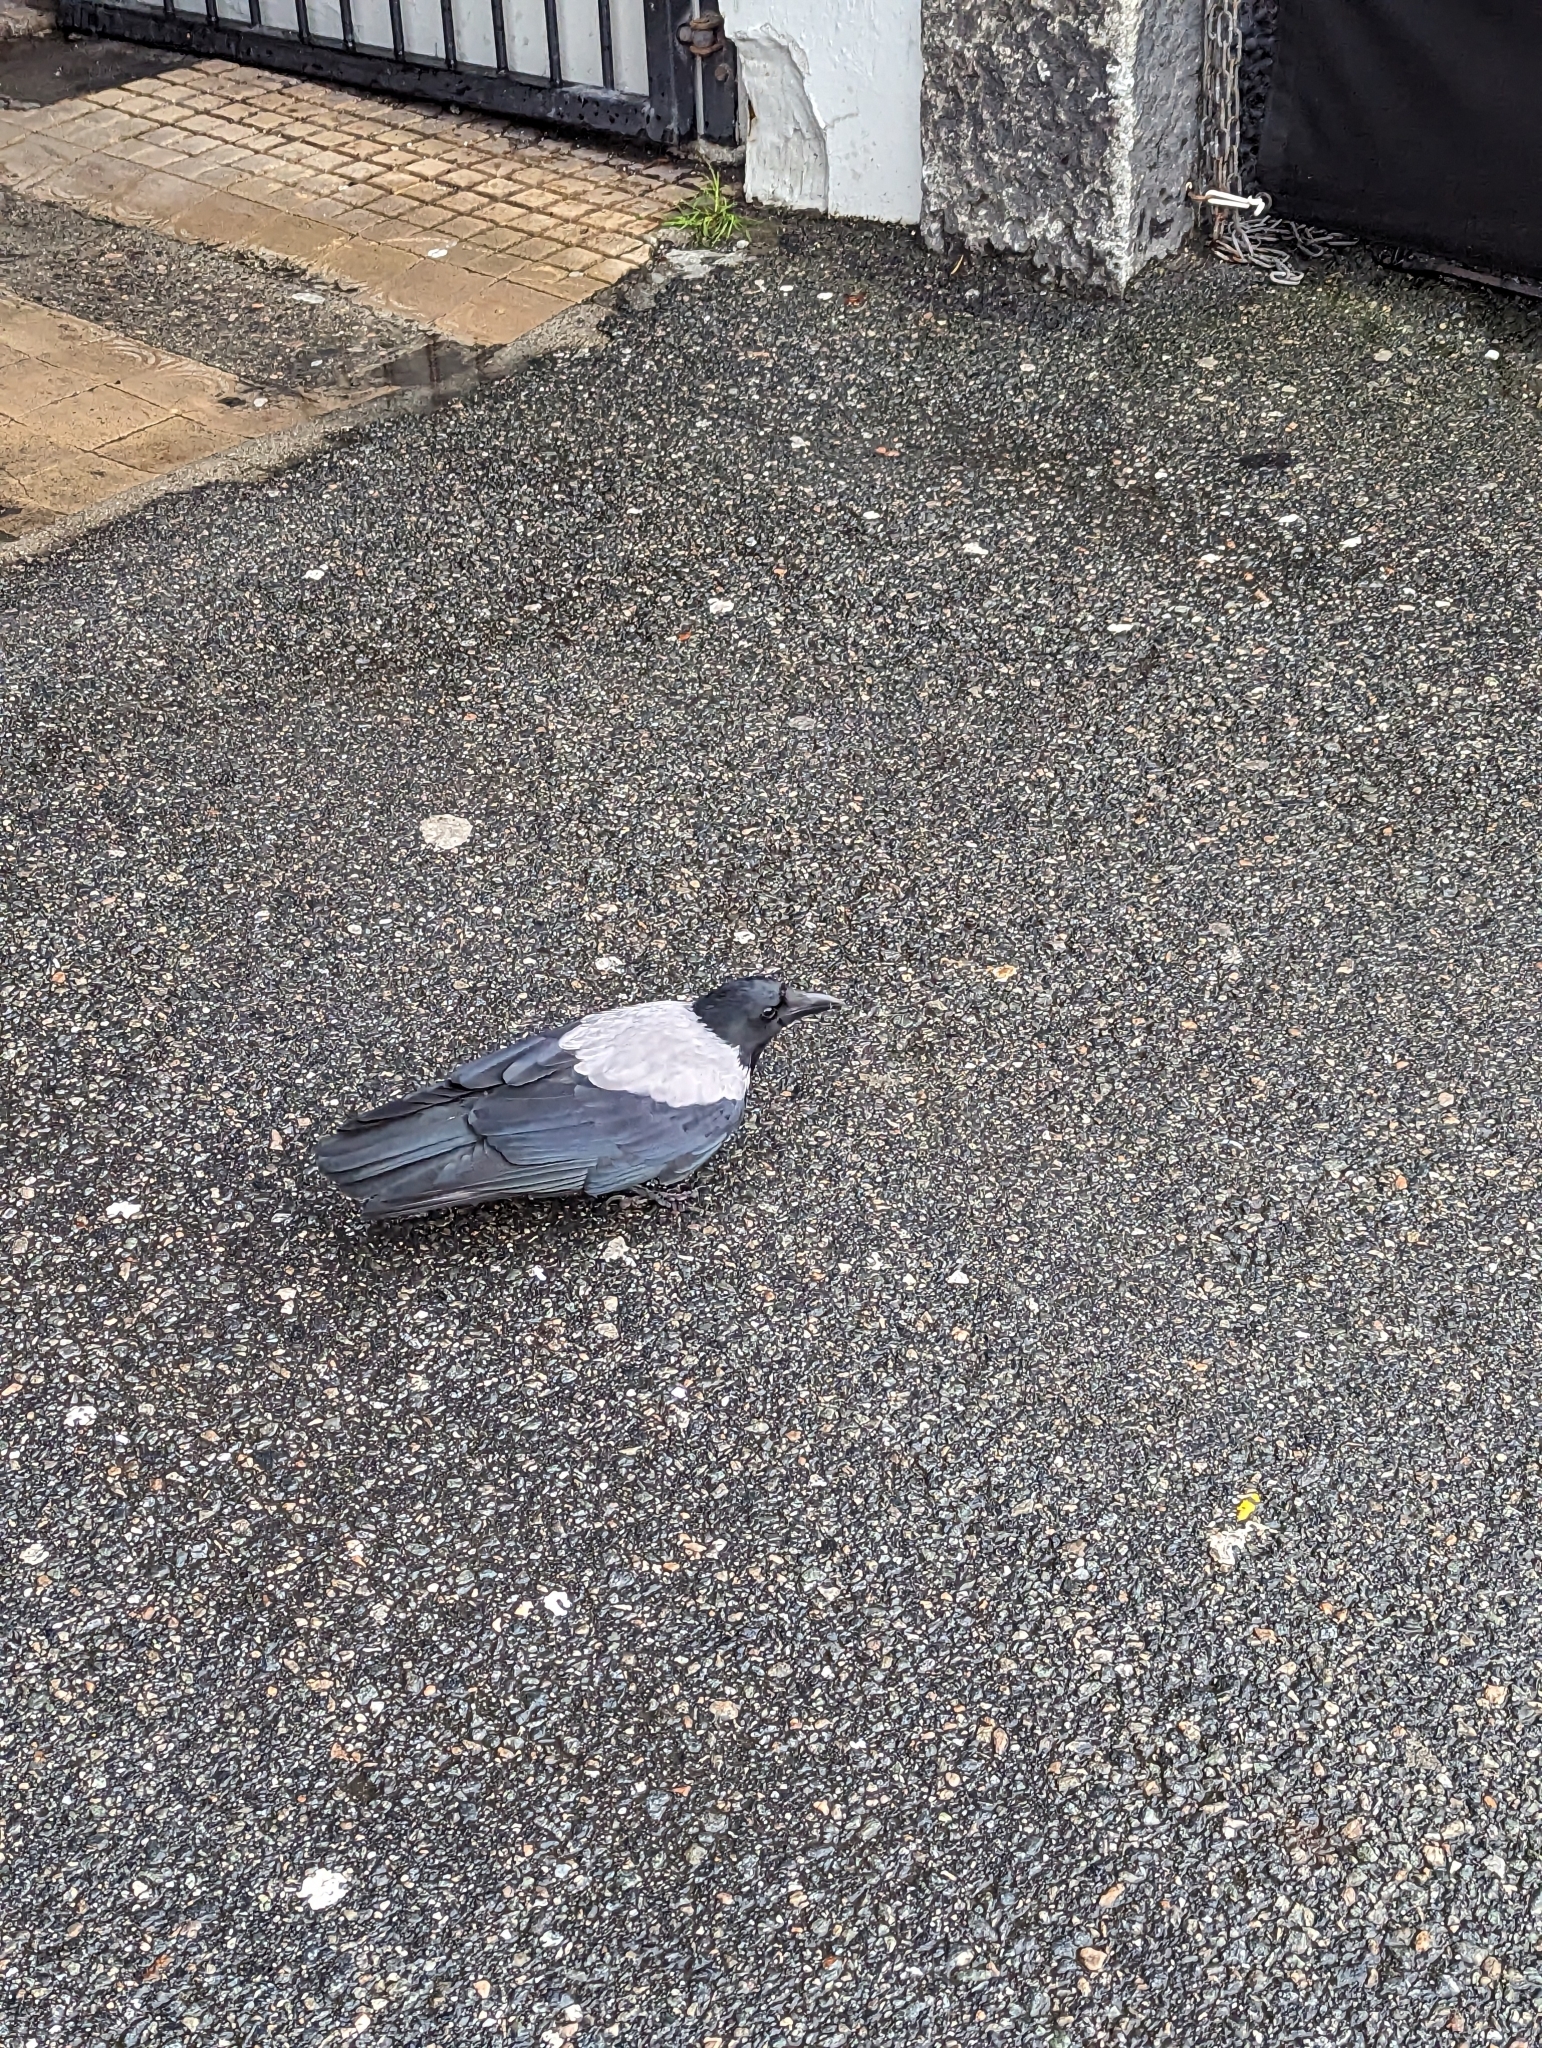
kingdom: Animalia
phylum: Chordata
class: Aves
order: Passeriformes
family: Corvidae
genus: Corvus
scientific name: Corvus cornix
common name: Hooded crow
